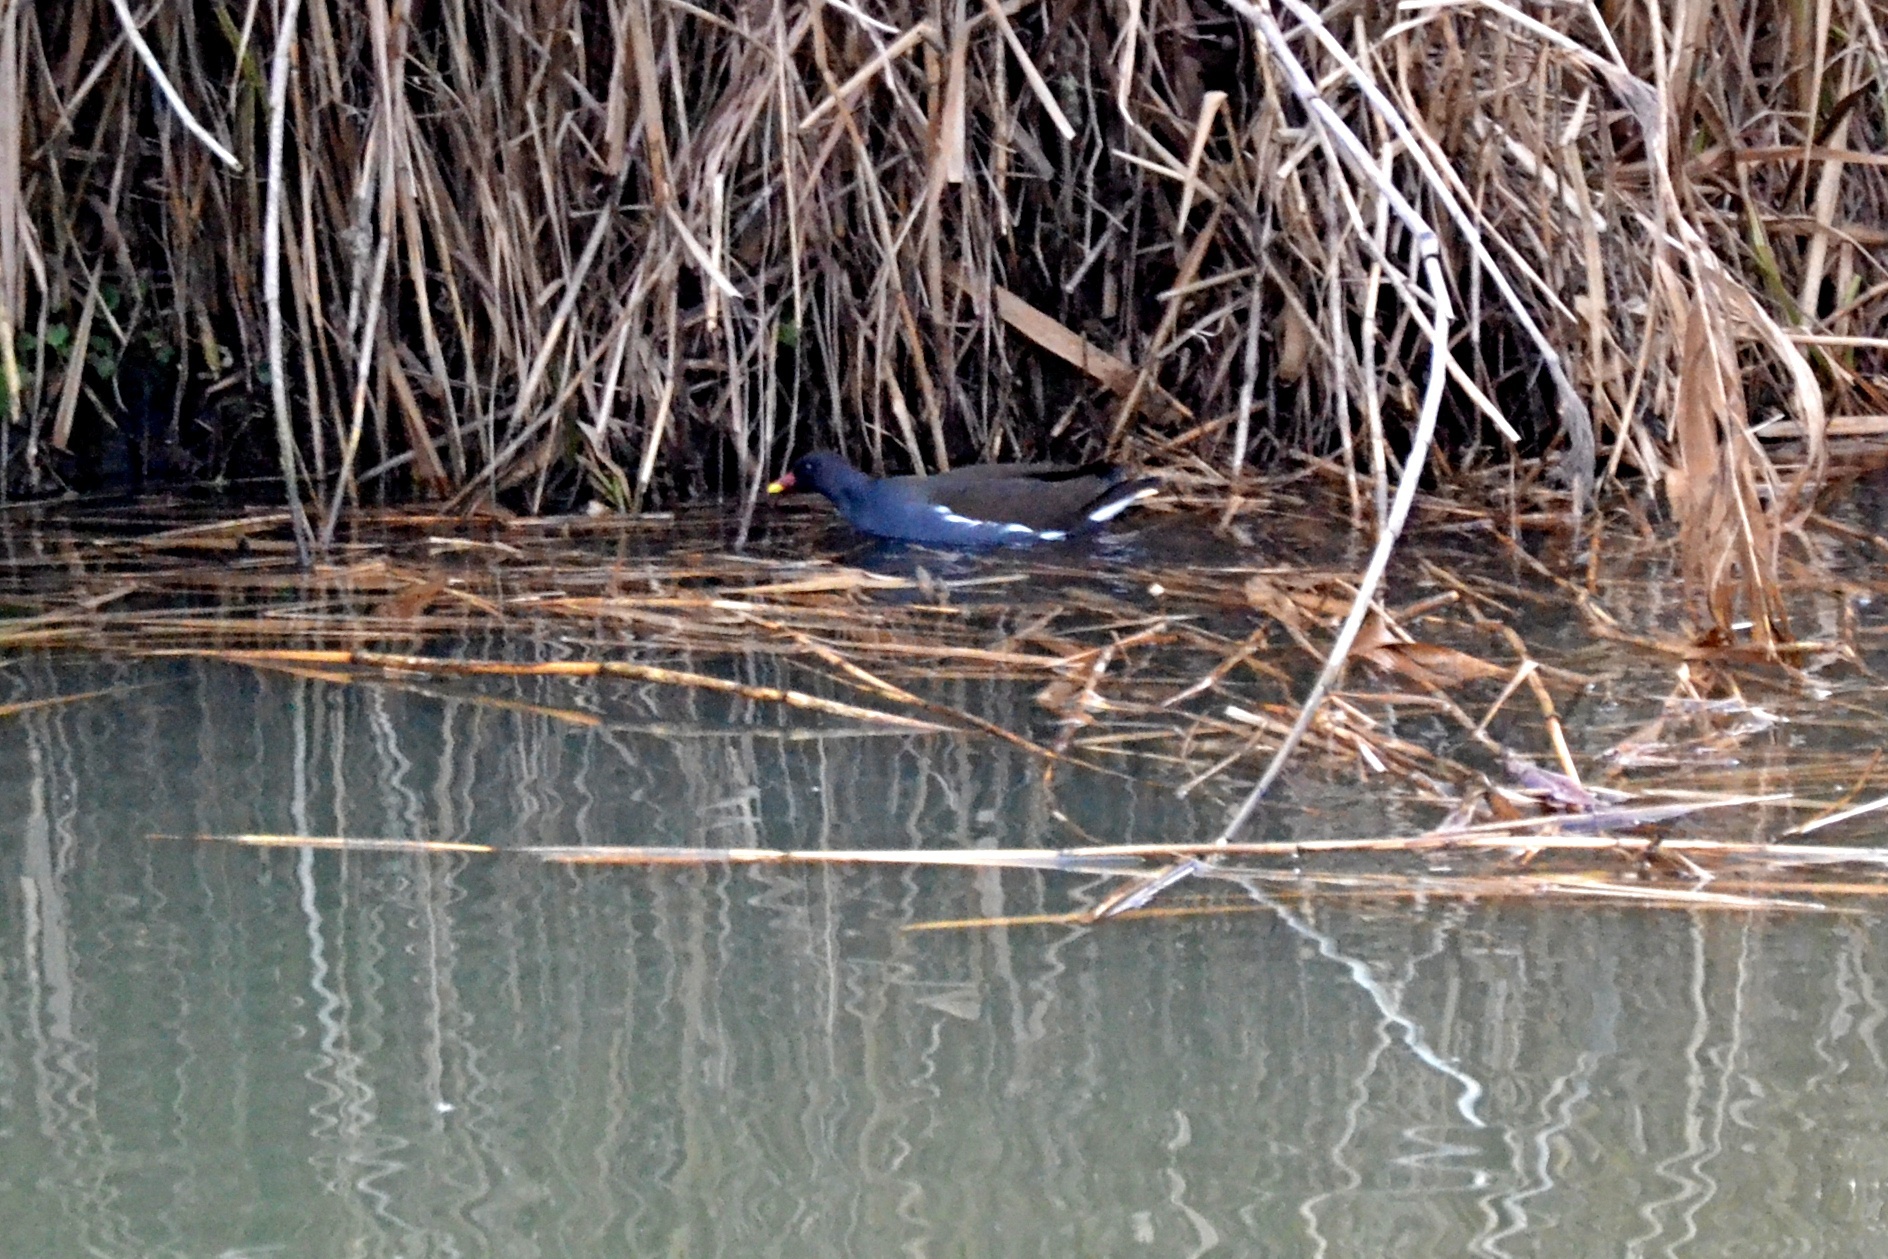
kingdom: Animalia
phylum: Chordata
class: Aves
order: Gruiformes
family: Rallidae
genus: Gallinula
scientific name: Gallinula chloropus
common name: Common moorhen
